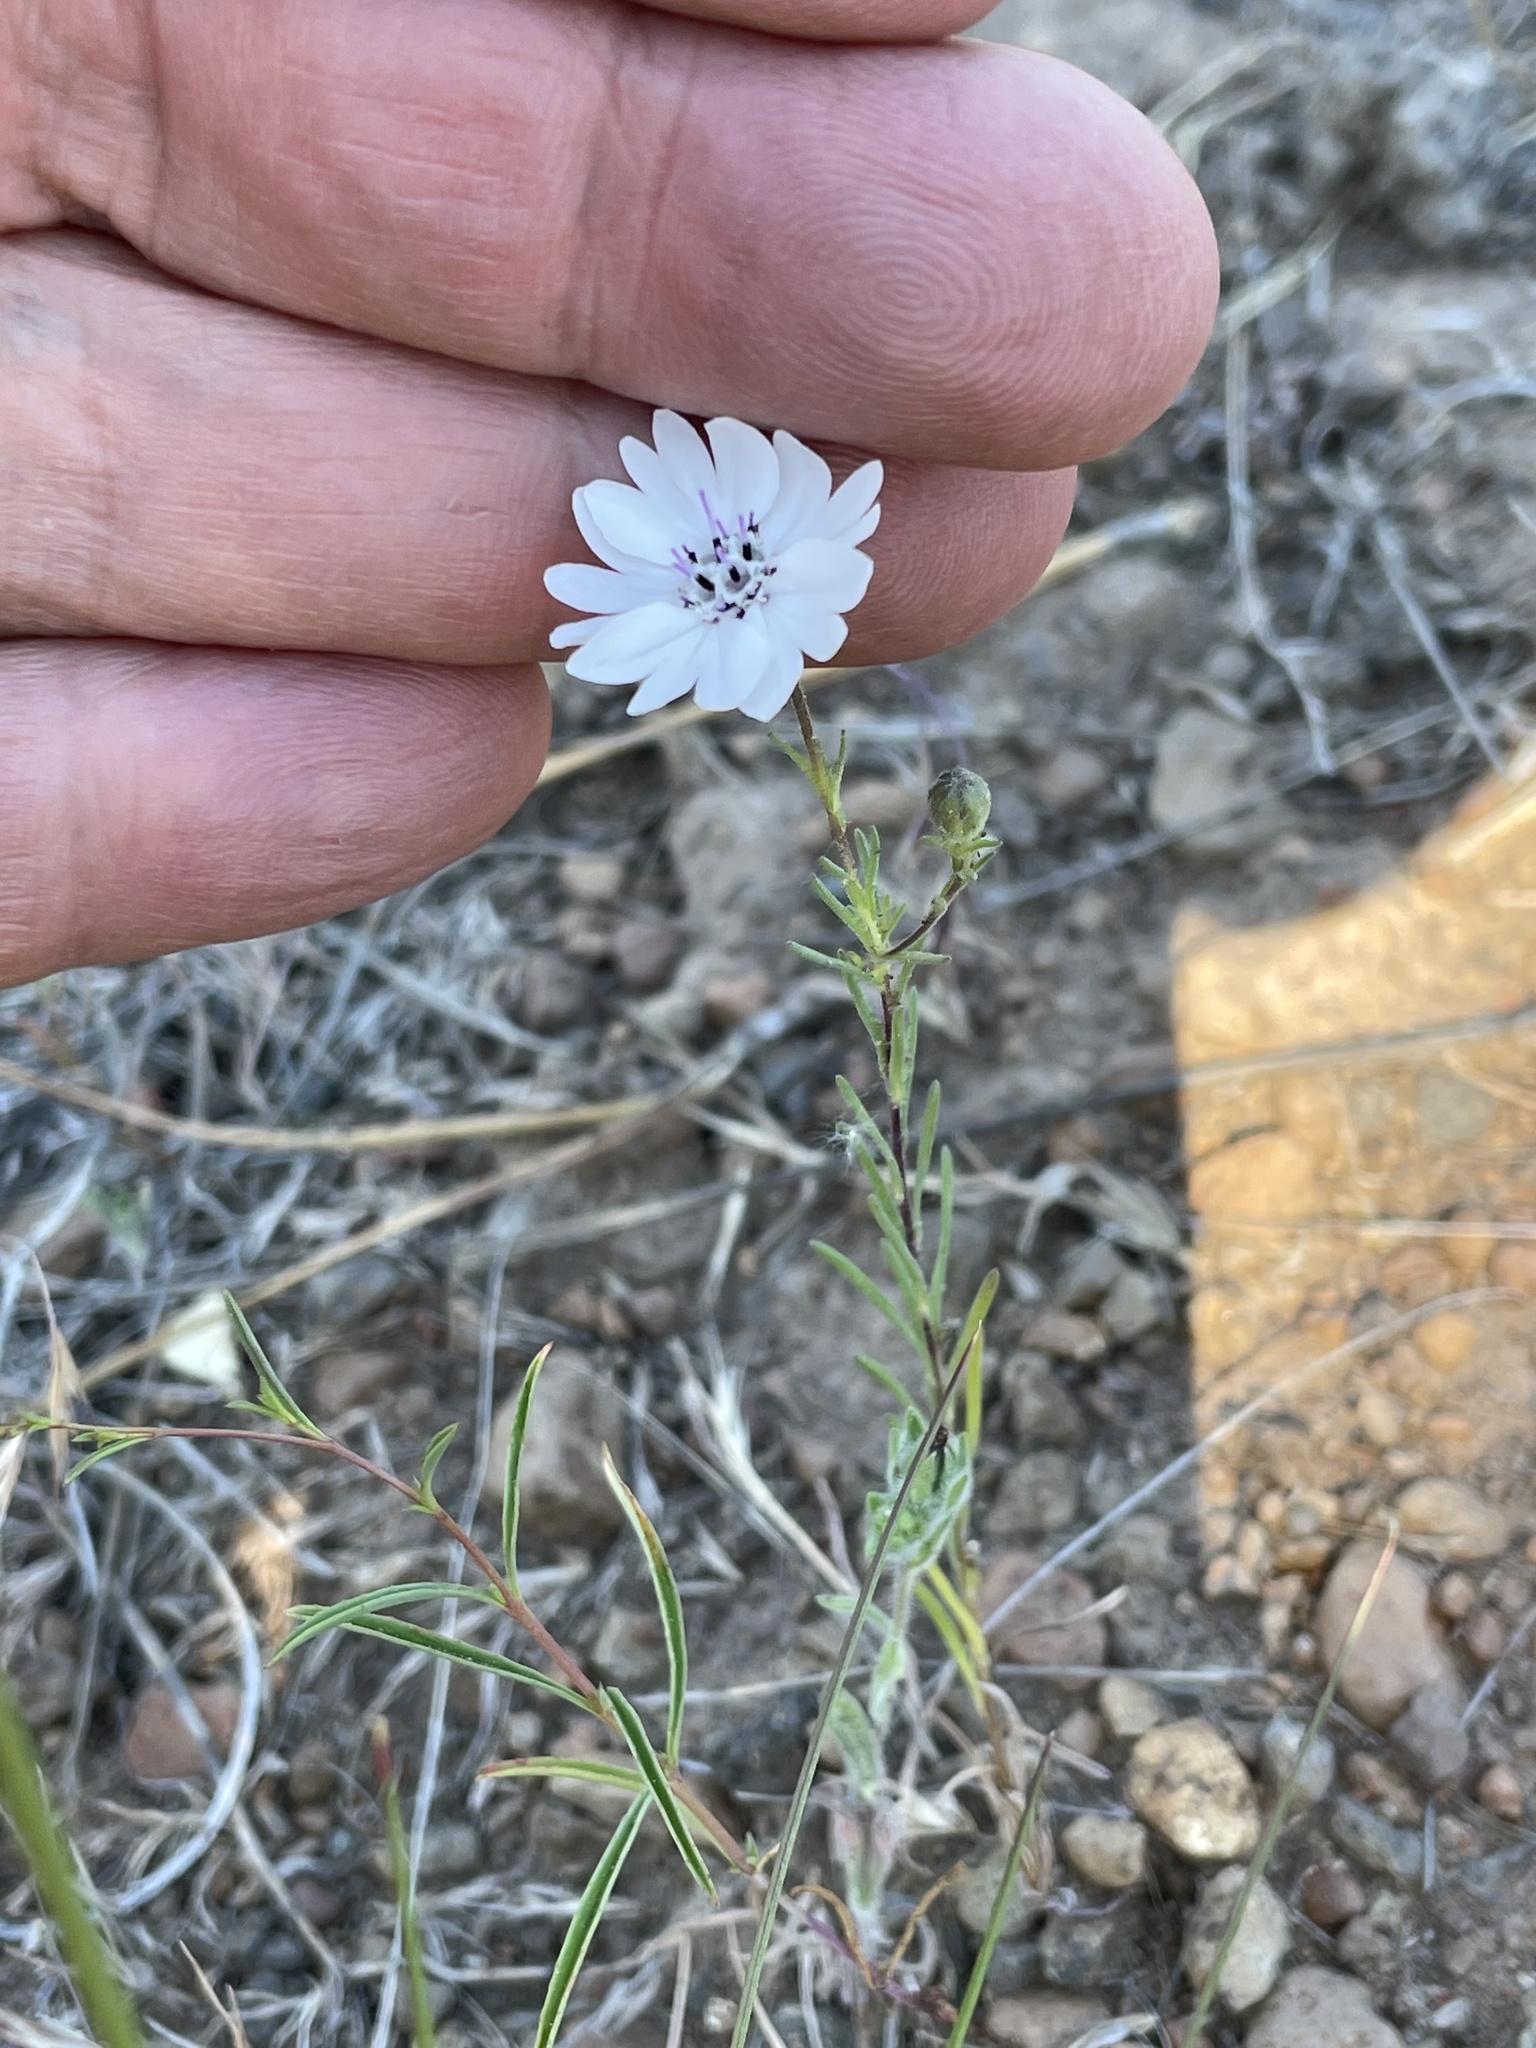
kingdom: Plantae
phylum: Tracheophyta
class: Magnoliopsida
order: Asterales
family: Asteraceae
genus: Blepharipappus
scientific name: Blepharipappus scaber
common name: Rough blepharipappus
